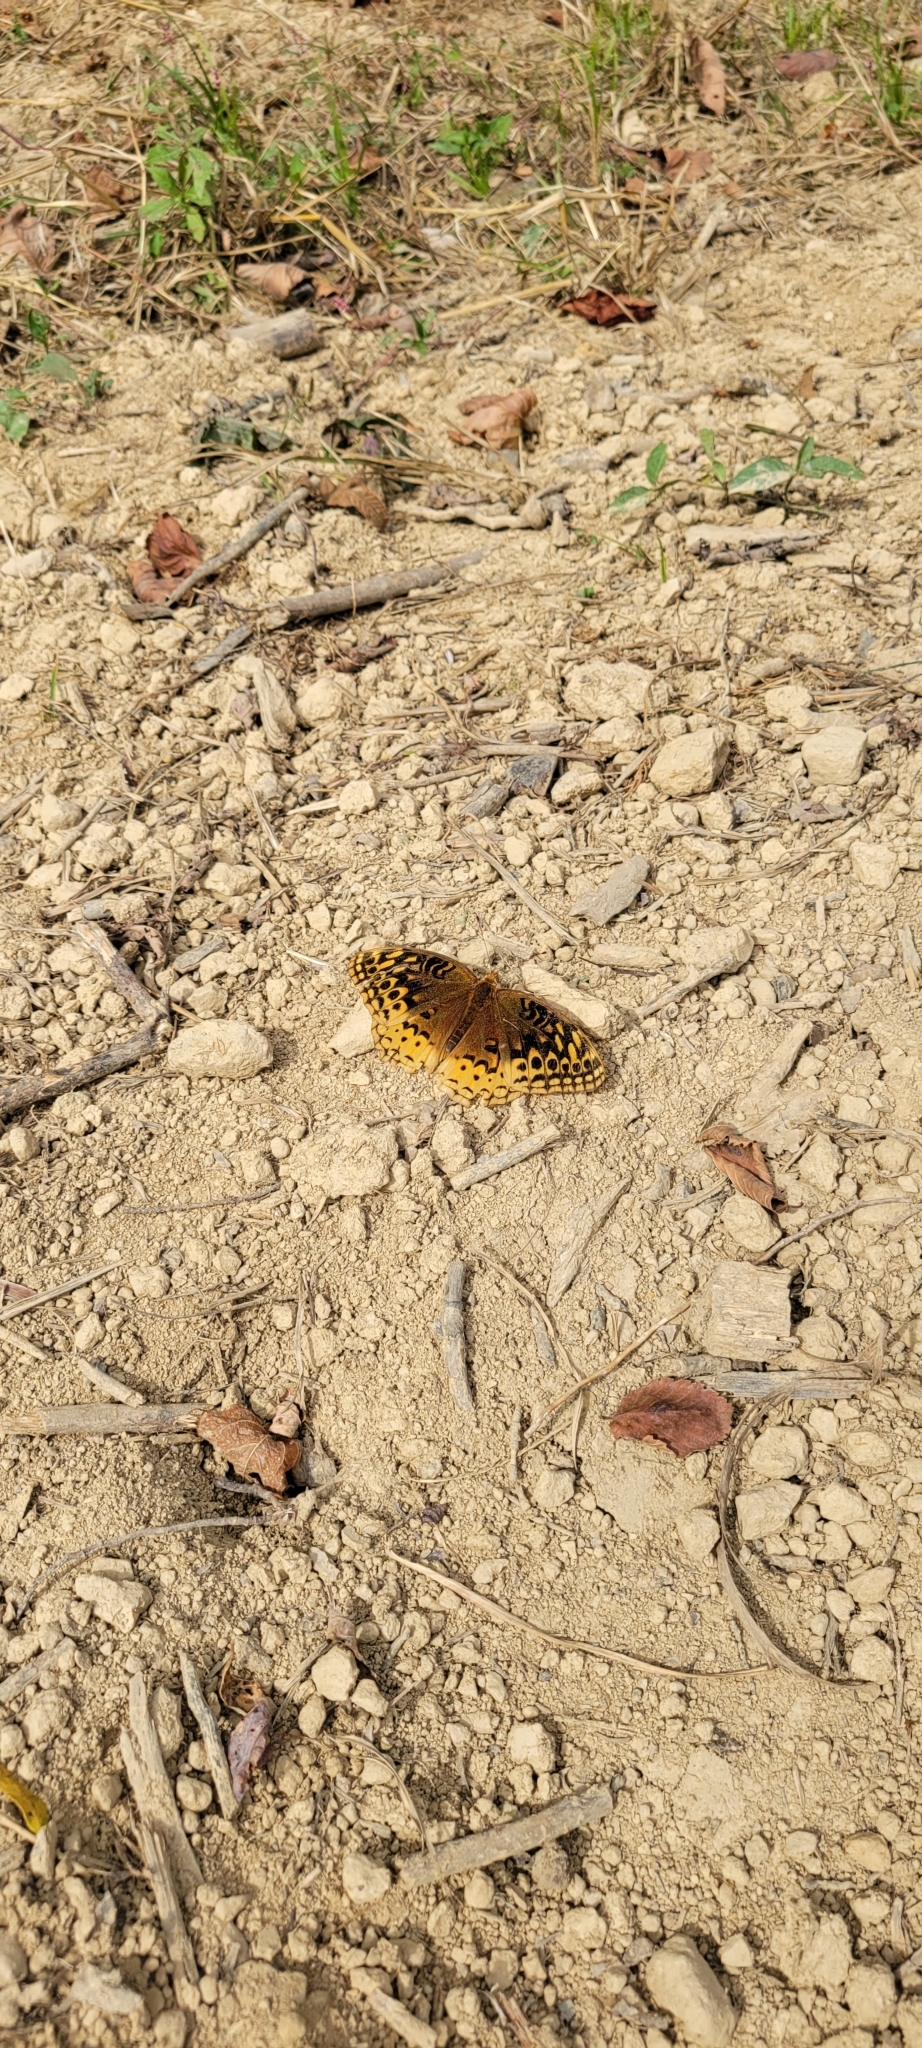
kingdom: Animalia
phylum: Arthropoda
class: Insecta
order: Lepidoptera
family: Nymphalidae
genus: Speyeria
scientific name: Speyeria cybele
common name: Great spangled fritillary
